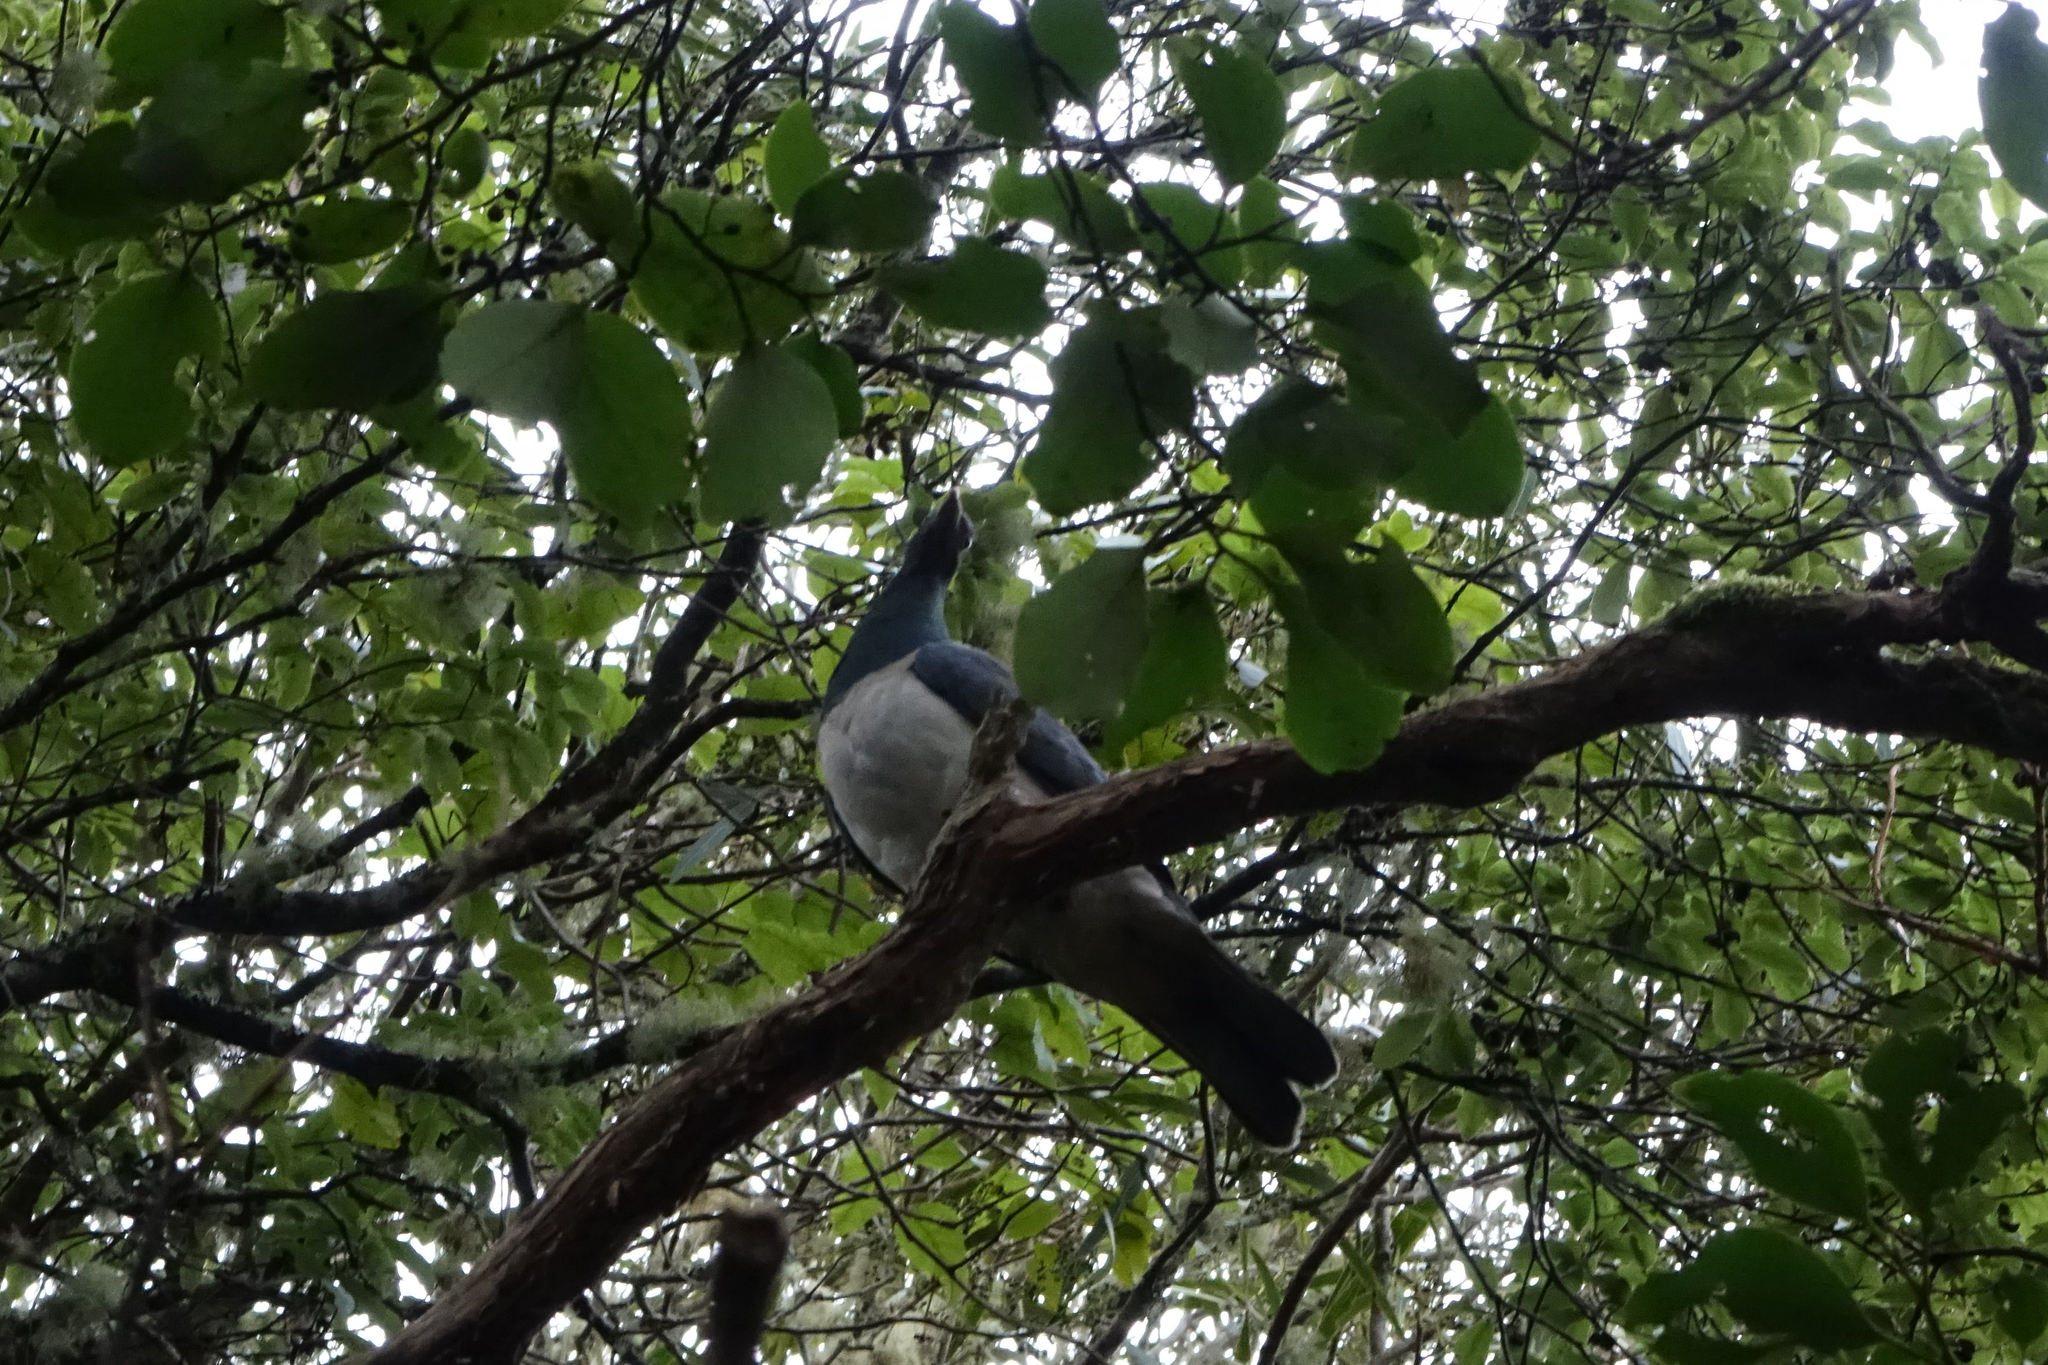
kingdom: Animalia
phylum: Chordata
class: Aves
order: Columbiformes
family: Columbidae
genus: Hemiphaga
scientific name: Hemiphaga novaeseelandiae
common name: New zealand pigeon
